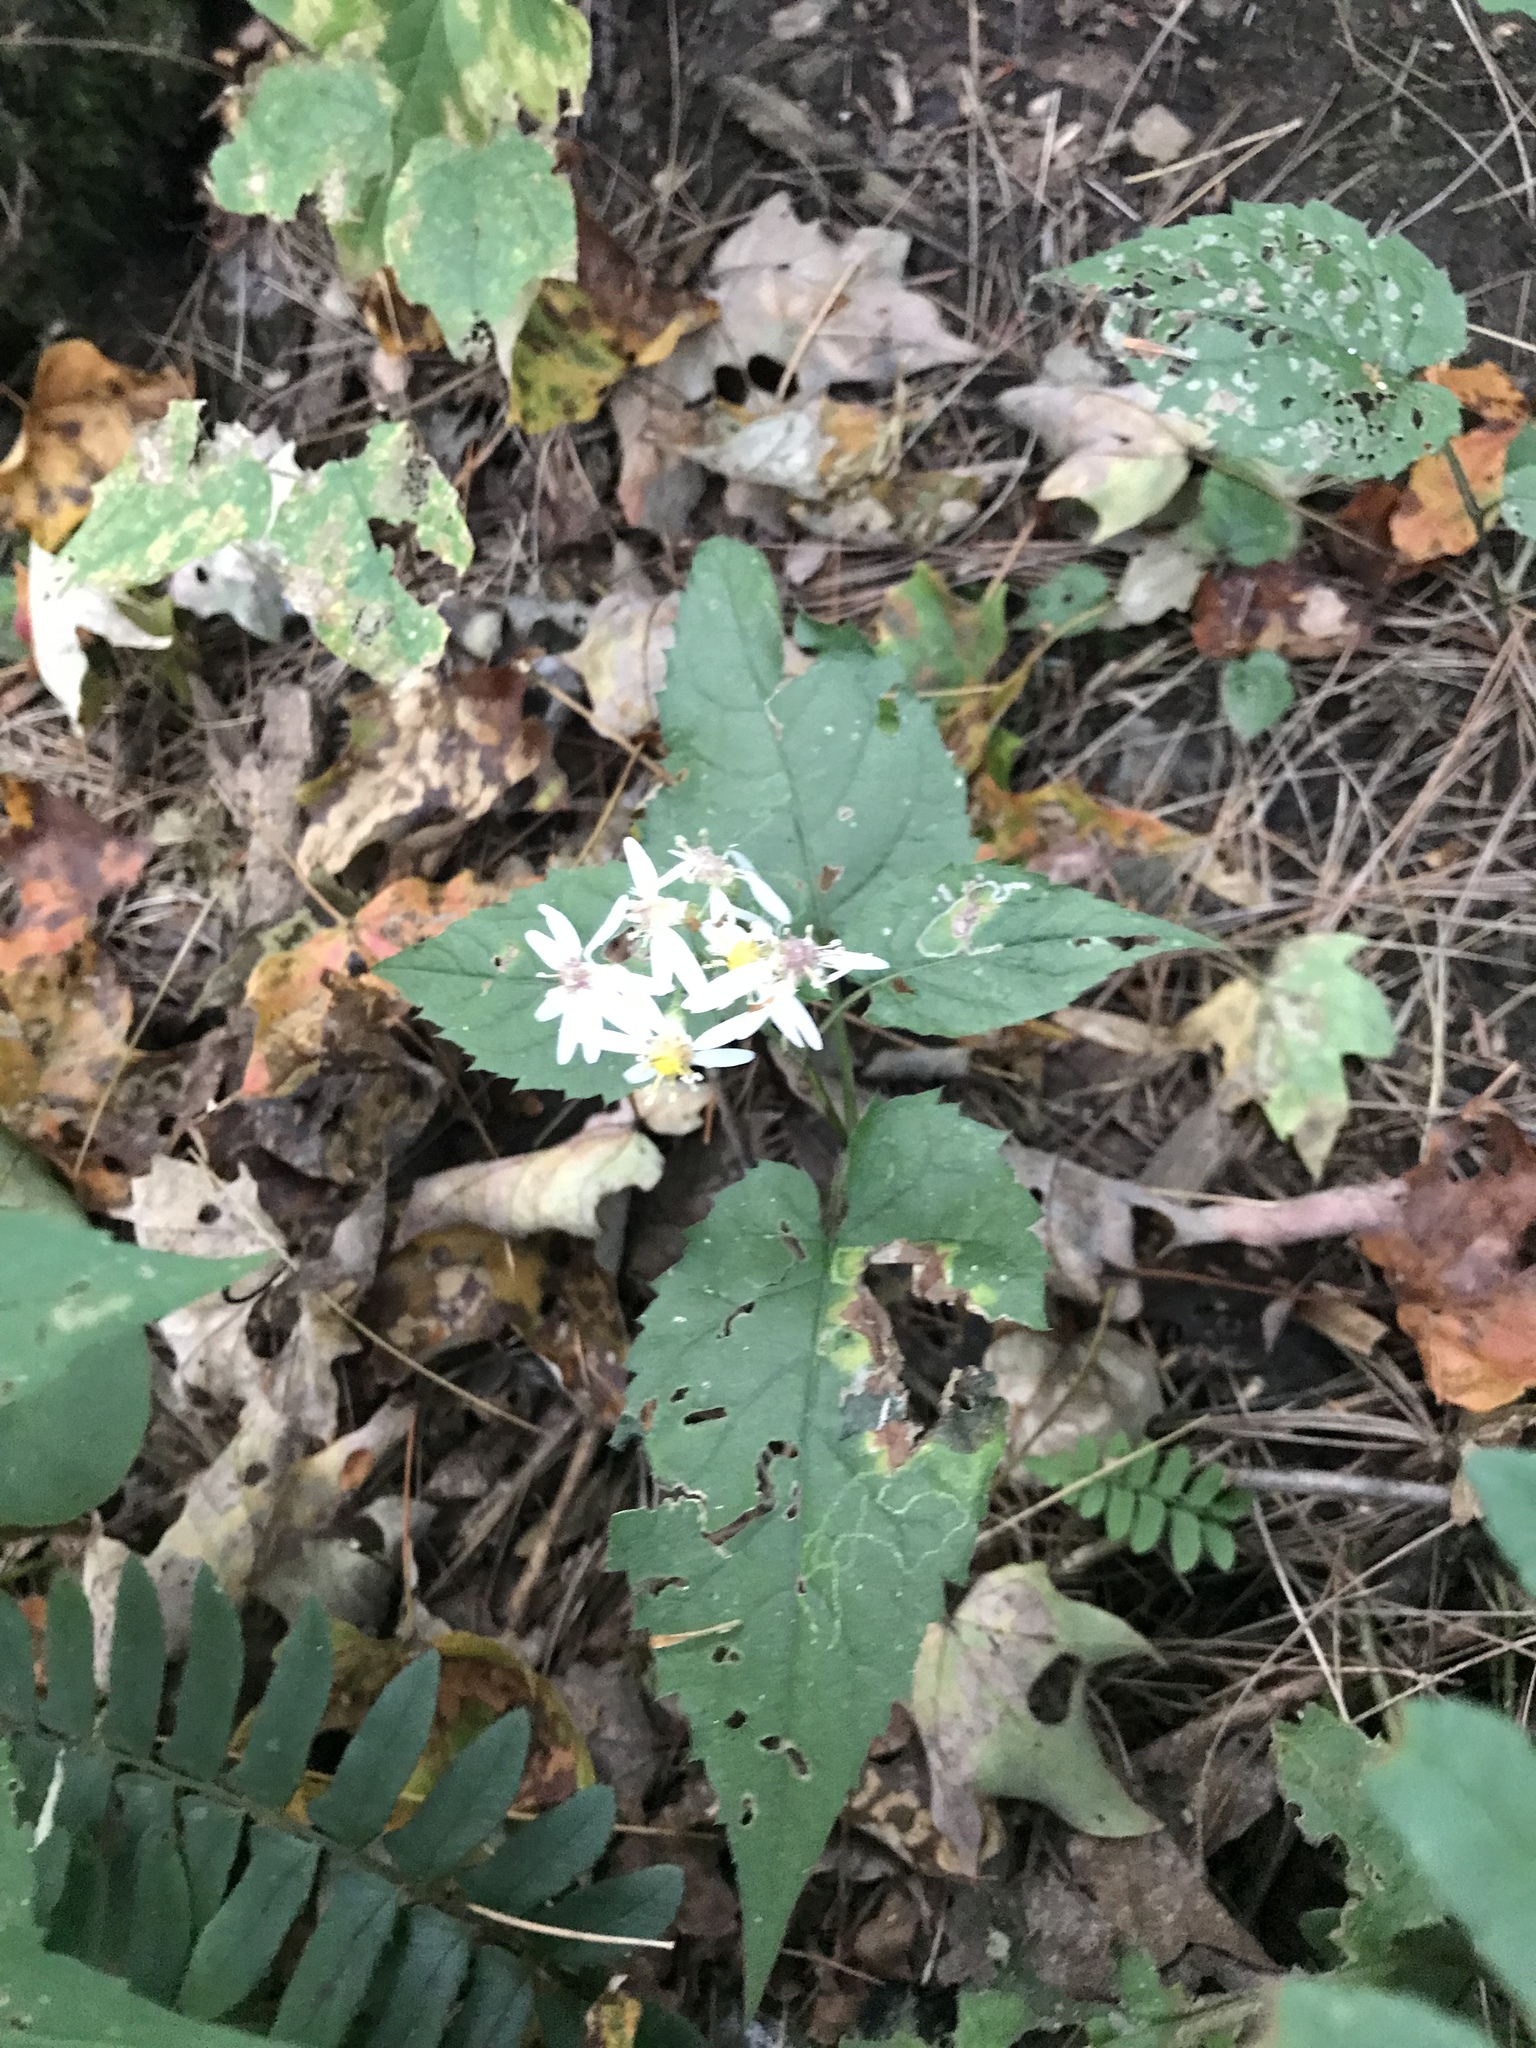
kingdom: Plantae
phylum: Tracheophyta
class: Magnoliopsida
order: Asterales
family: Asteraceae
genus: Eurybia
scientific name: Eurybia divaricata
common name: White wood aster
